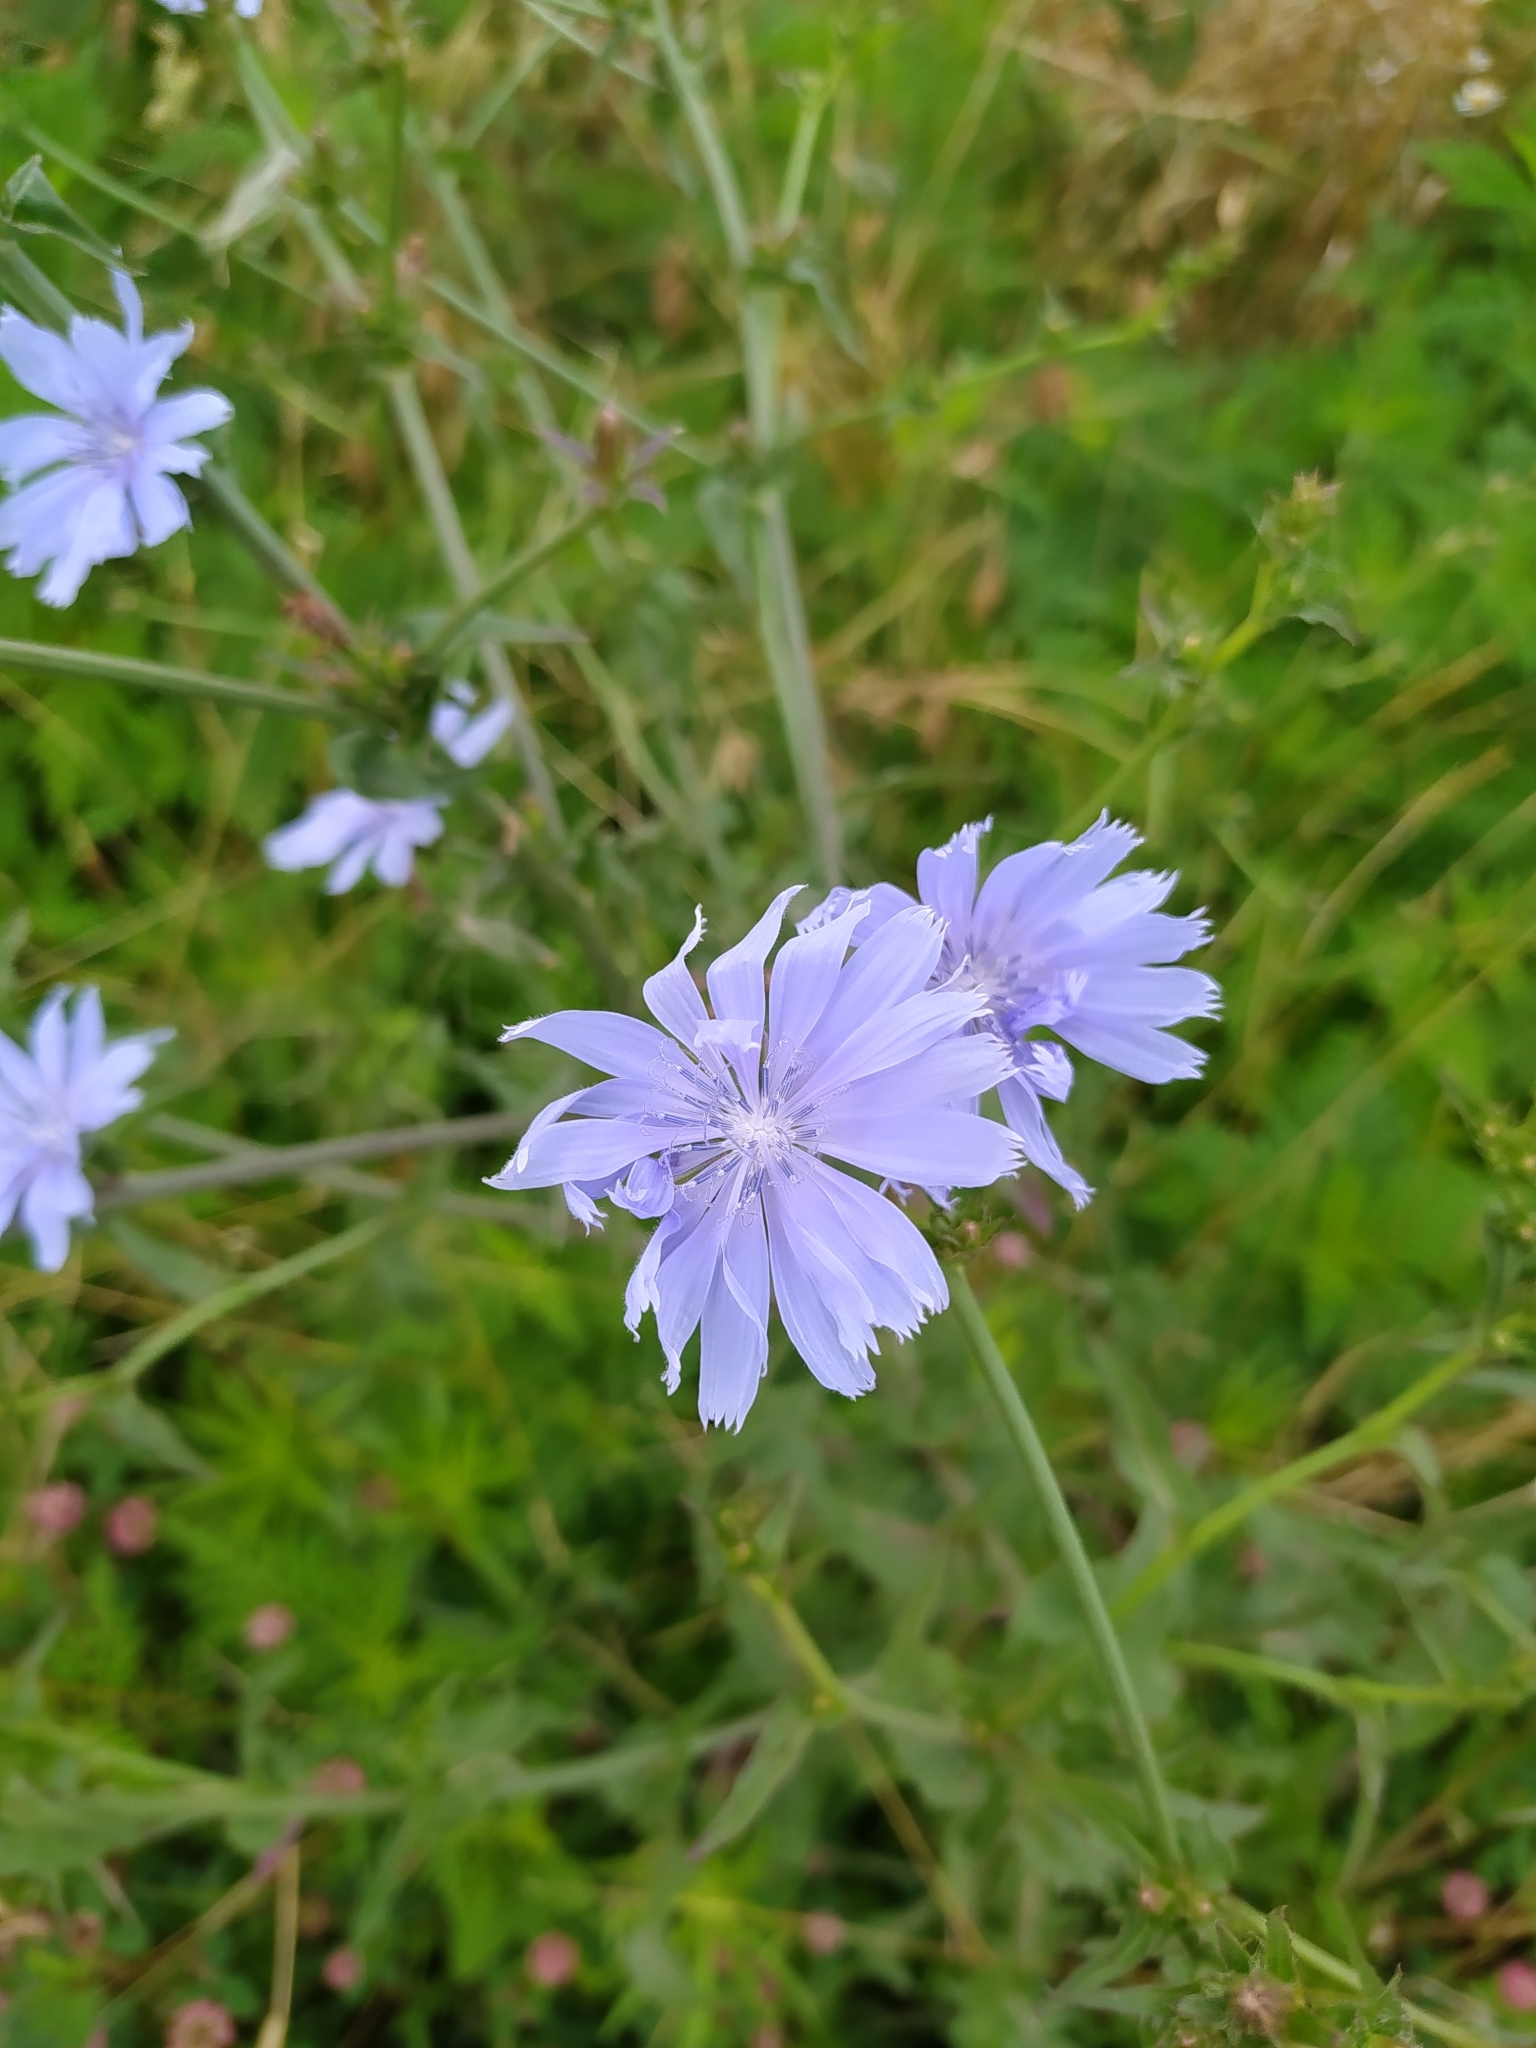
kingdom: Plantae
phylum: Tracheophyta
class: Magnoliopsida
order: Asterales
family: Asteraceae
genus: Cichorium
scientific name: Cichorium intybus
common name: Chicory
